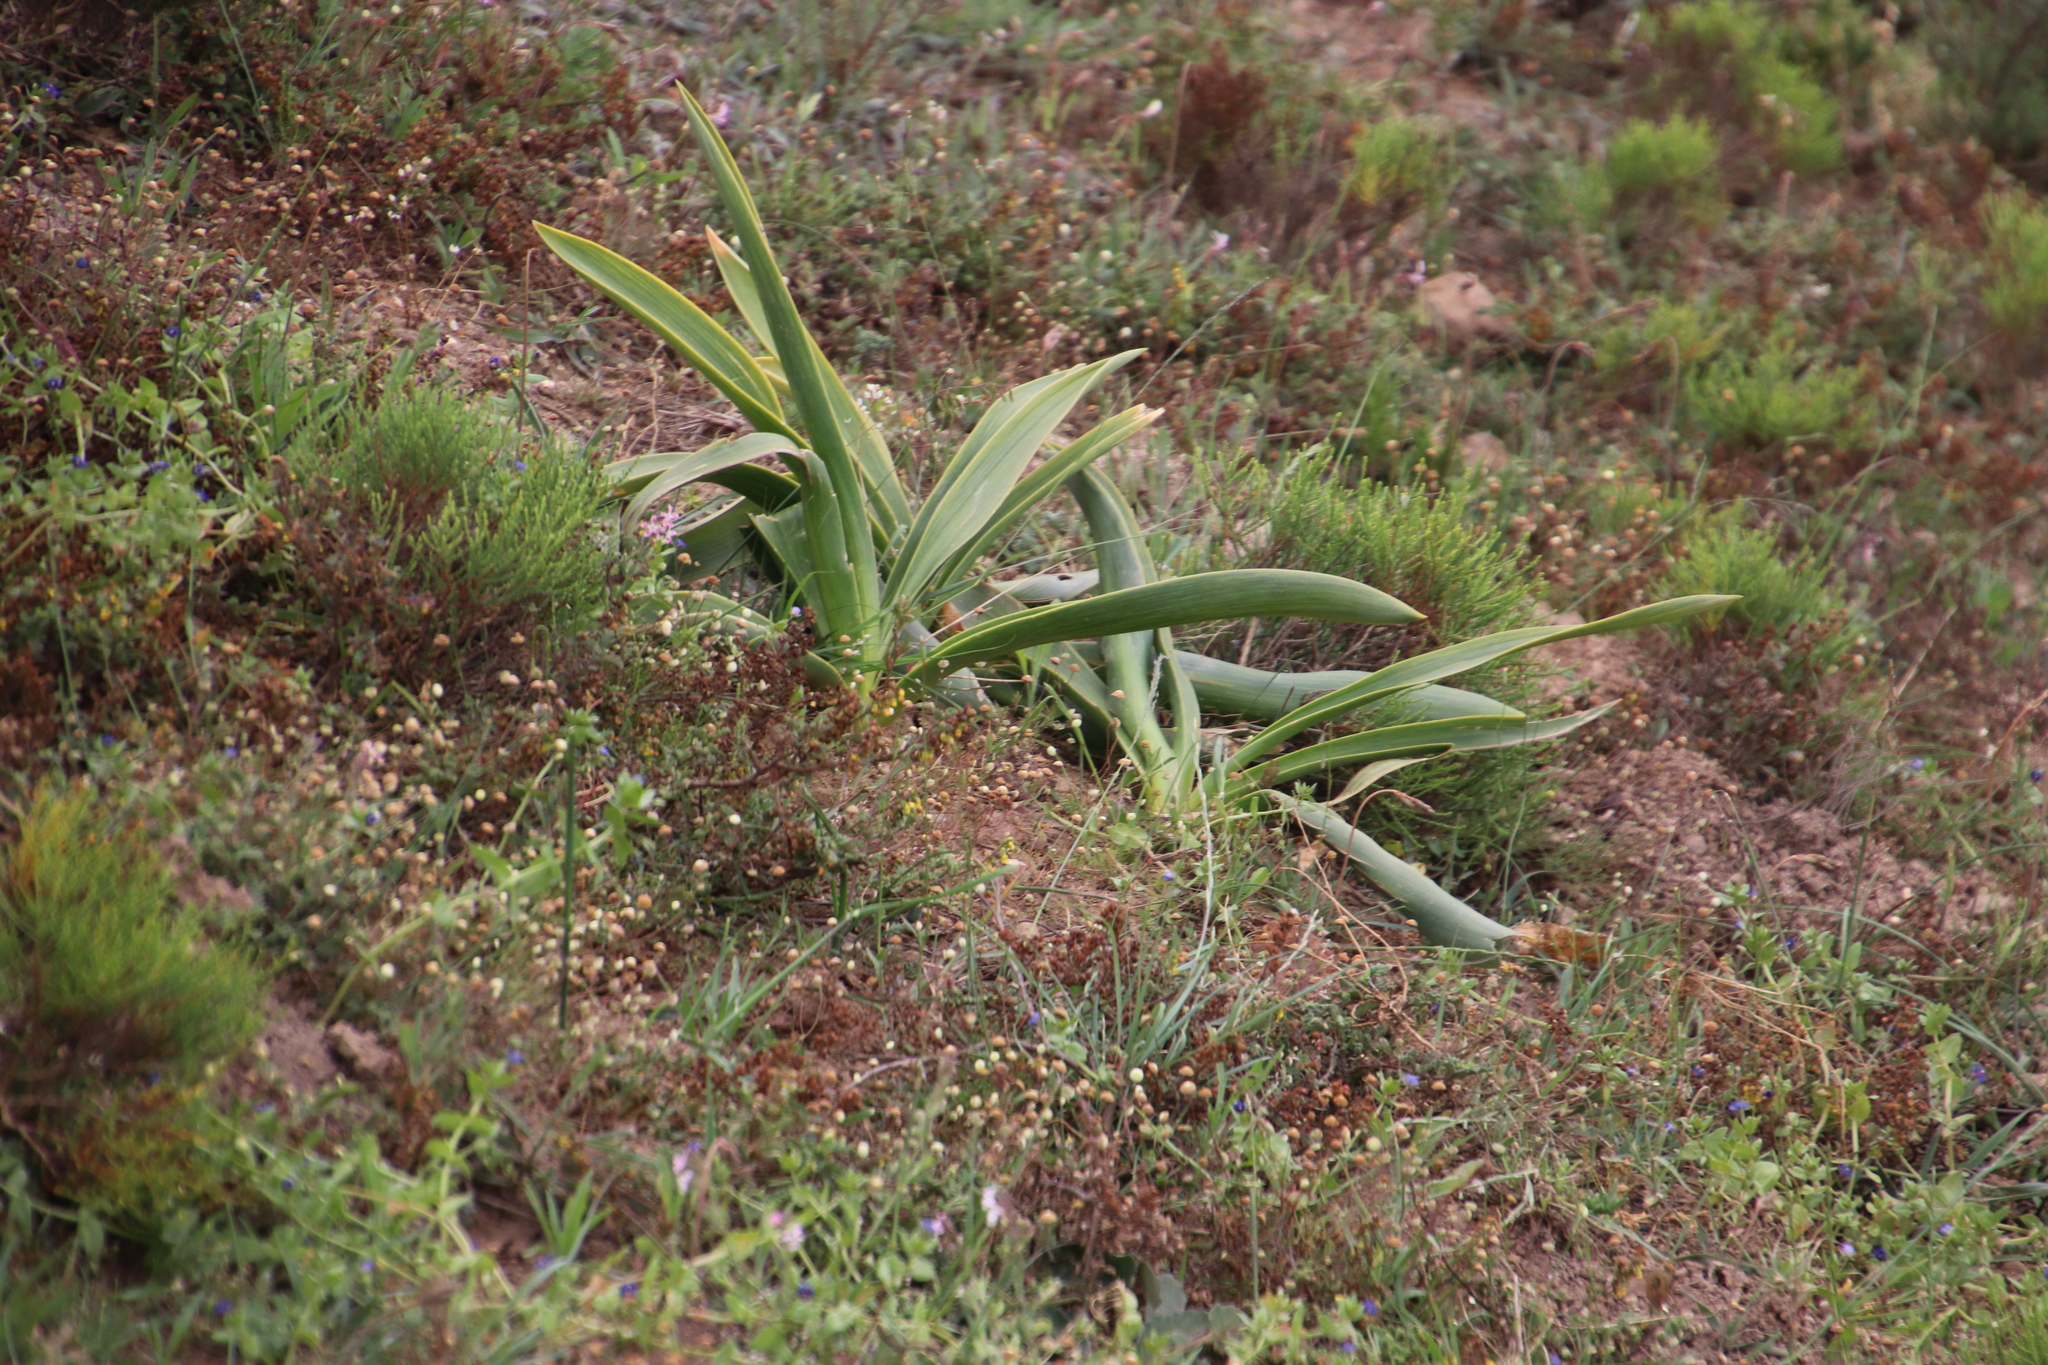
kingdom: Plantae
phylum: Tracheophyta
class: Liliopsida
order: Asparagales
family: Asparagaceae
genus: Drimia
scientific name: Drimia capensis
